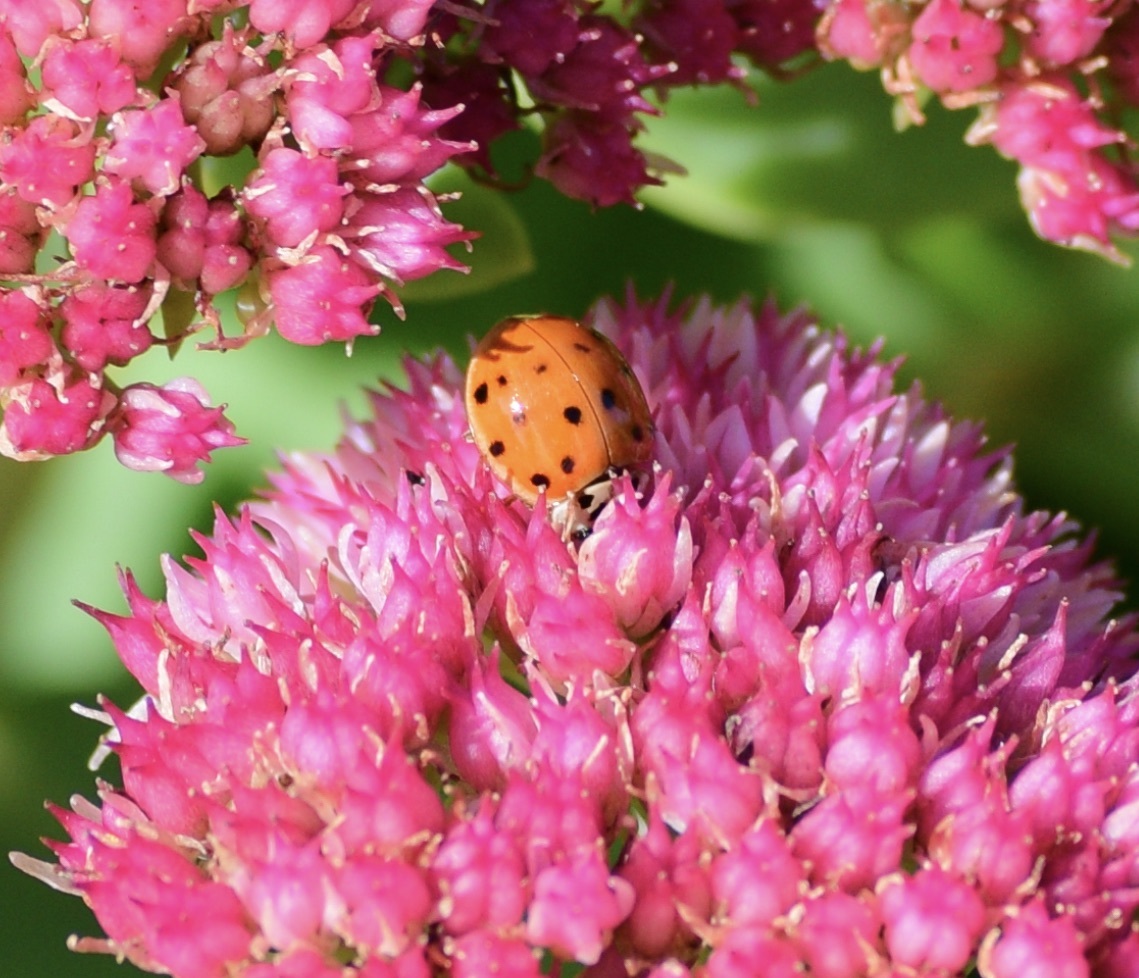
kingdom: Animalia
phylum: Arthropoda
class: Insecta
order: Coleoptera
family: Coccinellidae
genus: Harmonia
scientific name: Harmonia axyridis
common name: Harlequin ladybird
